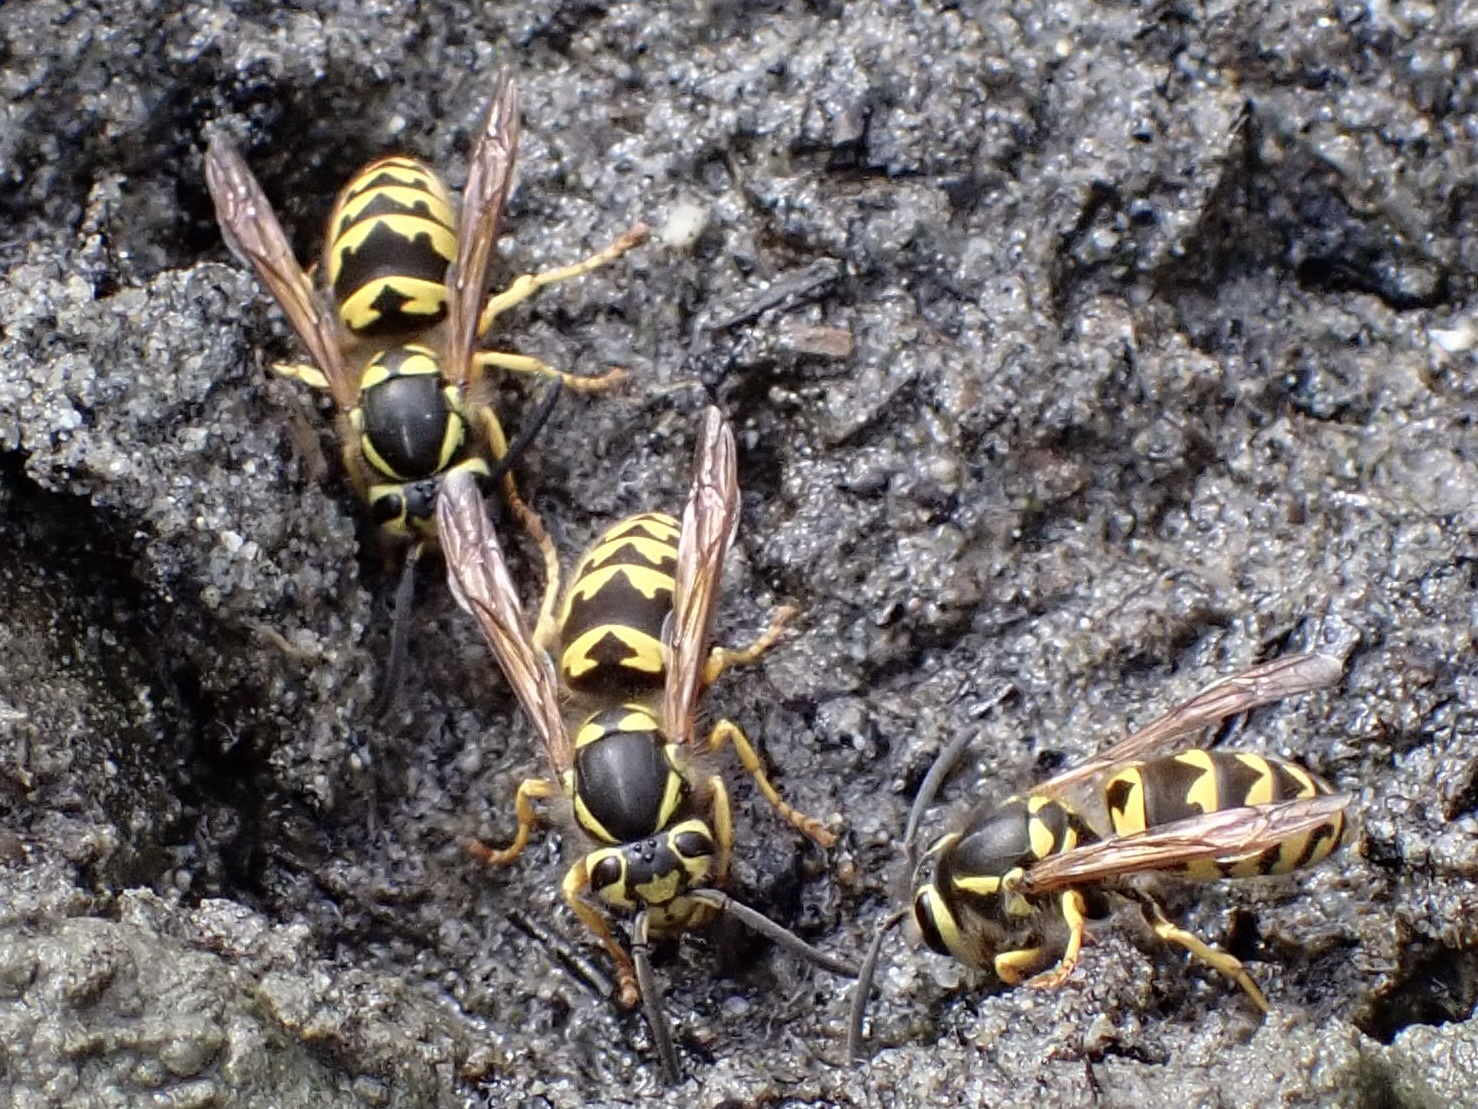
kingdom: Animalia
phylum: Arthropoda
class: Insecta
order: Hymenoptera
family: Vespidae
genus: Vespula
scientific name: Vespula pensylvanica
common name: Western yellowjacket
